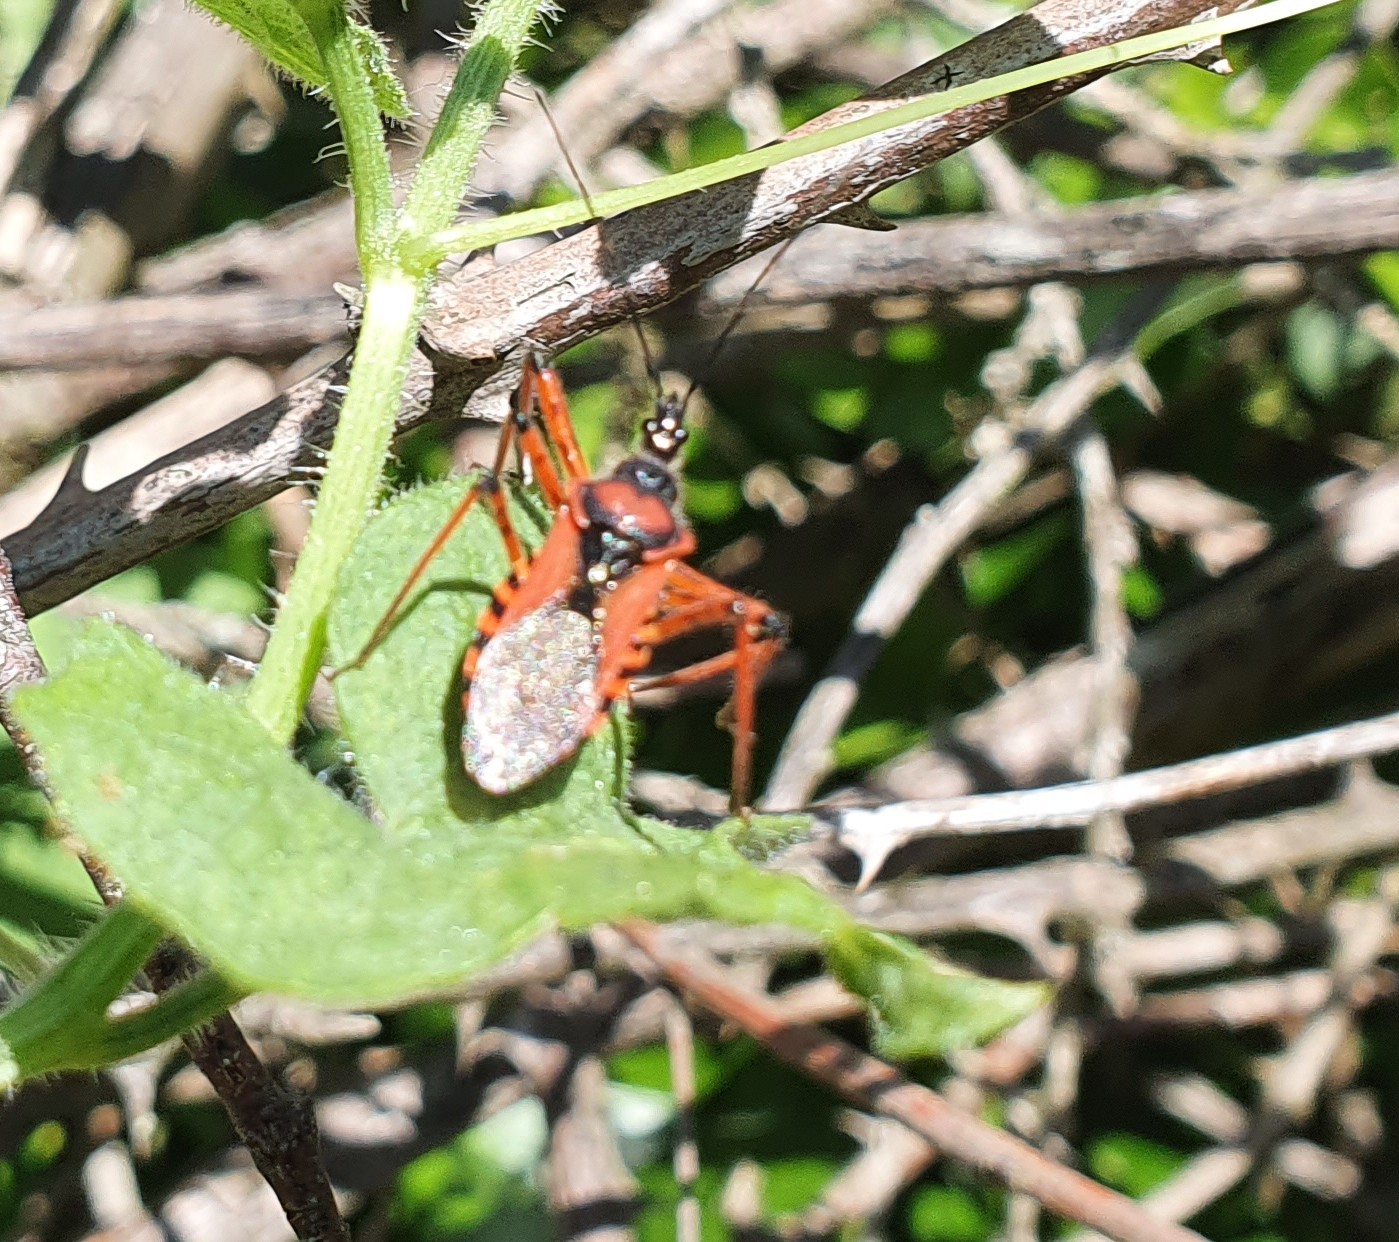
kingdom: Animalia
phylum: Arthropoda
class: Insecta
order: Hemiptera
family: Reduviidae
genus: Rhynocoris
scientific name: Rhynocoris iracundus
